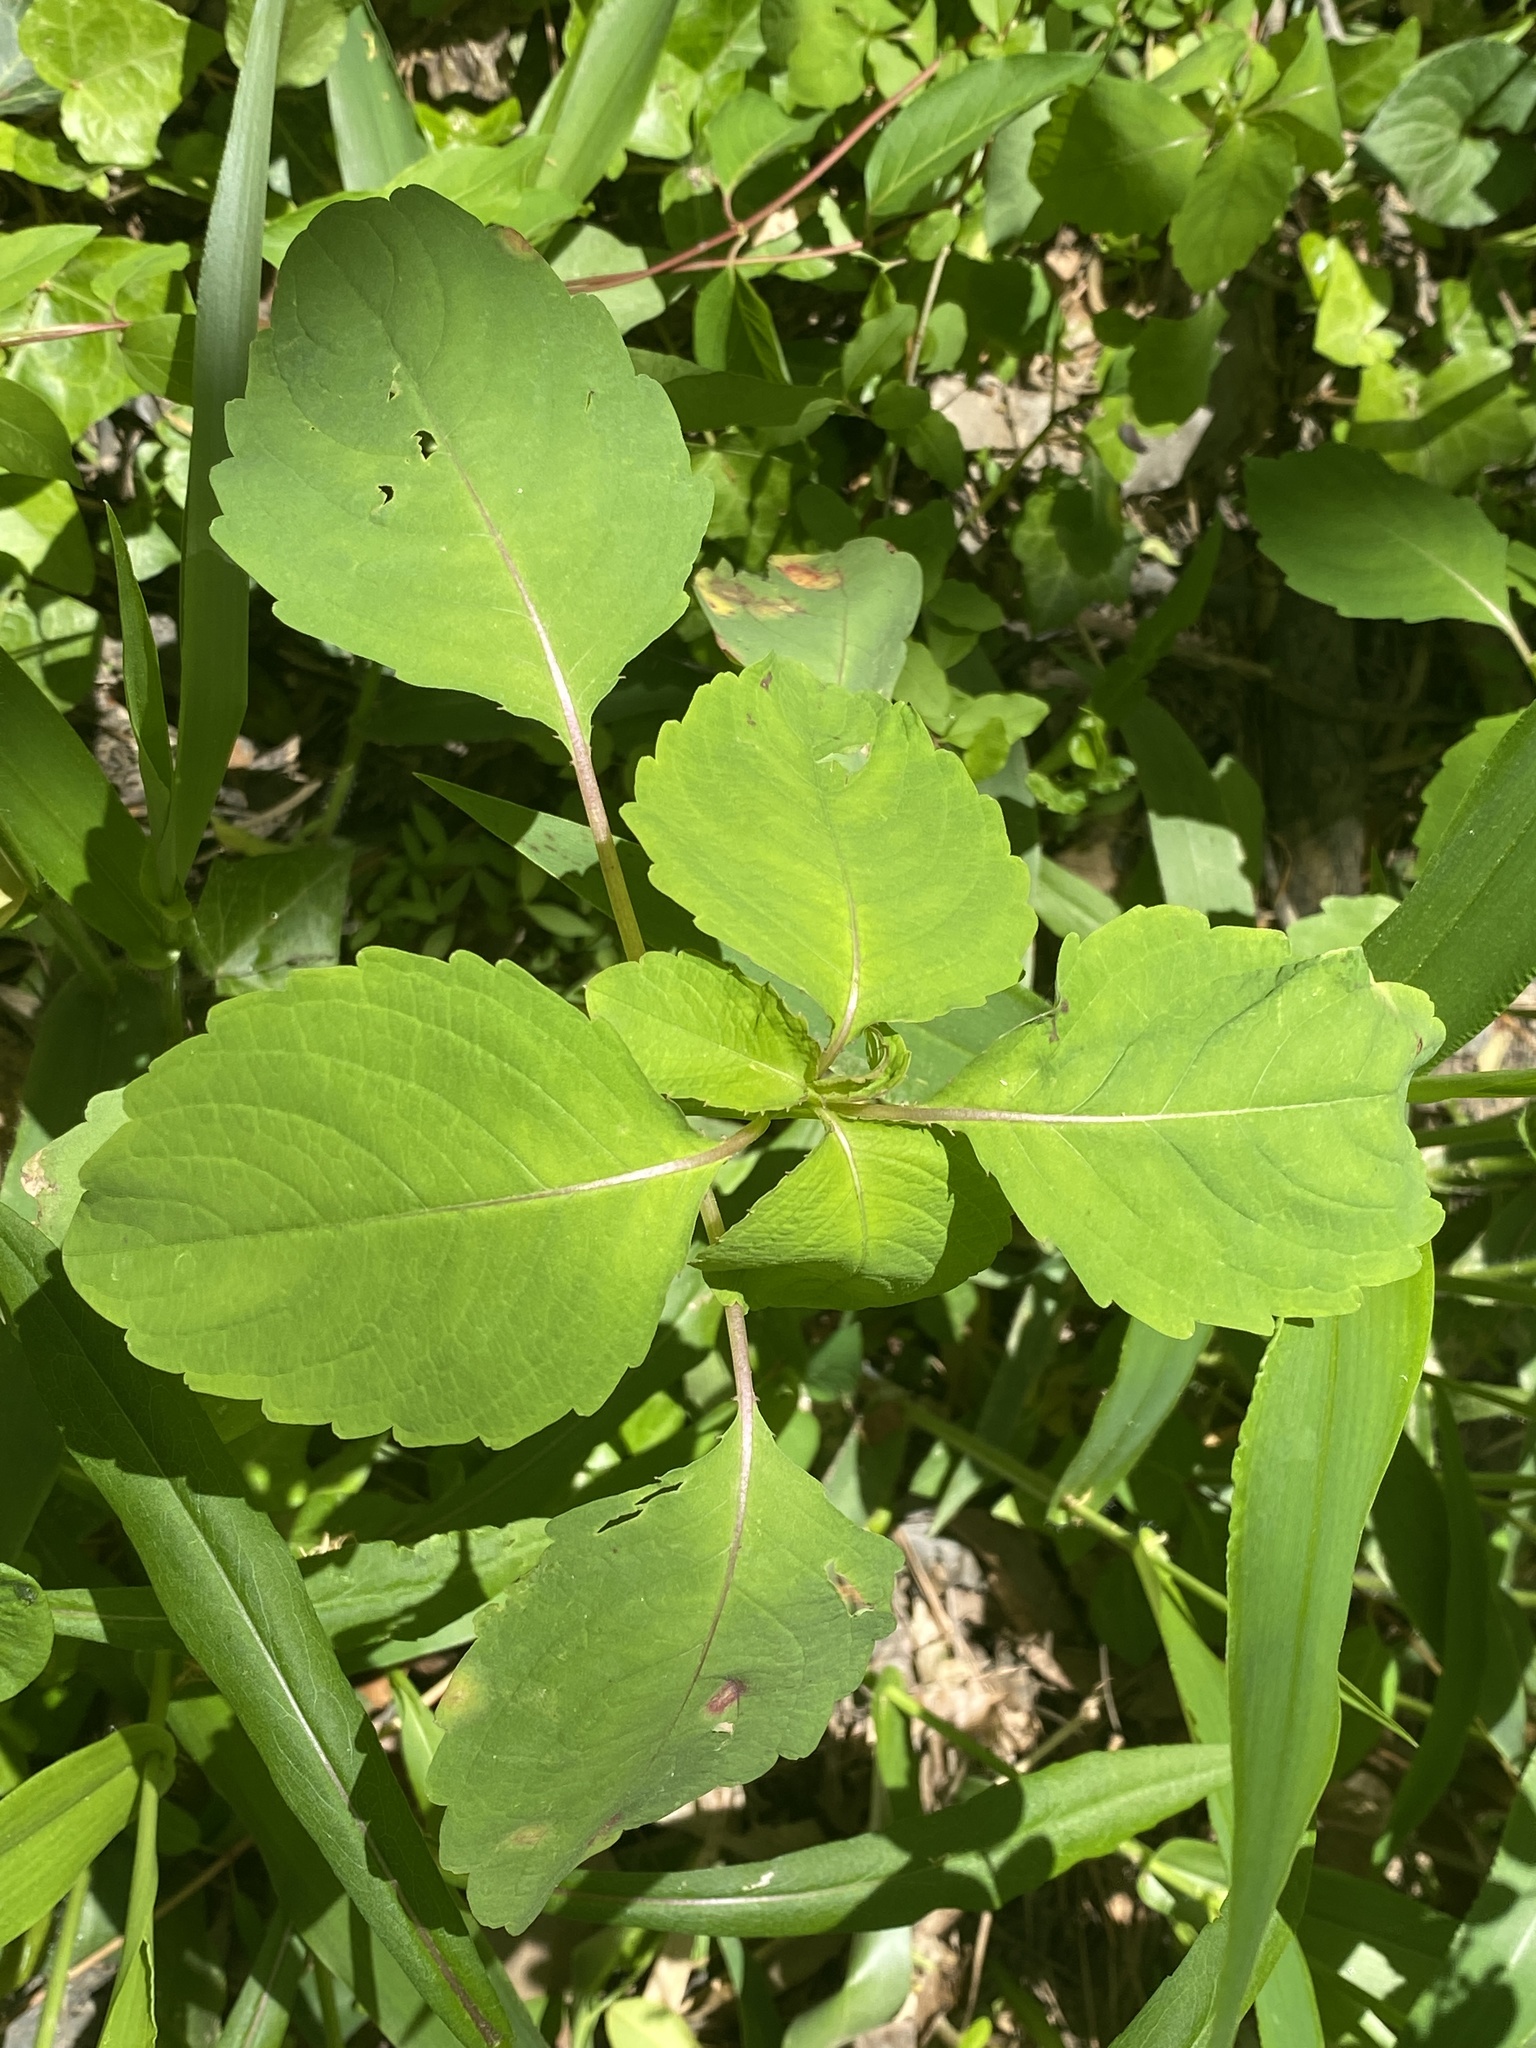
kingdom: Plantae
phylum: Tracheophyta
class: Magnoliopsida
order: Ericales
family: Balsaminaceae
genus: Impatiens
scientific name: Impatiens capensis
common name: Orange balsam
